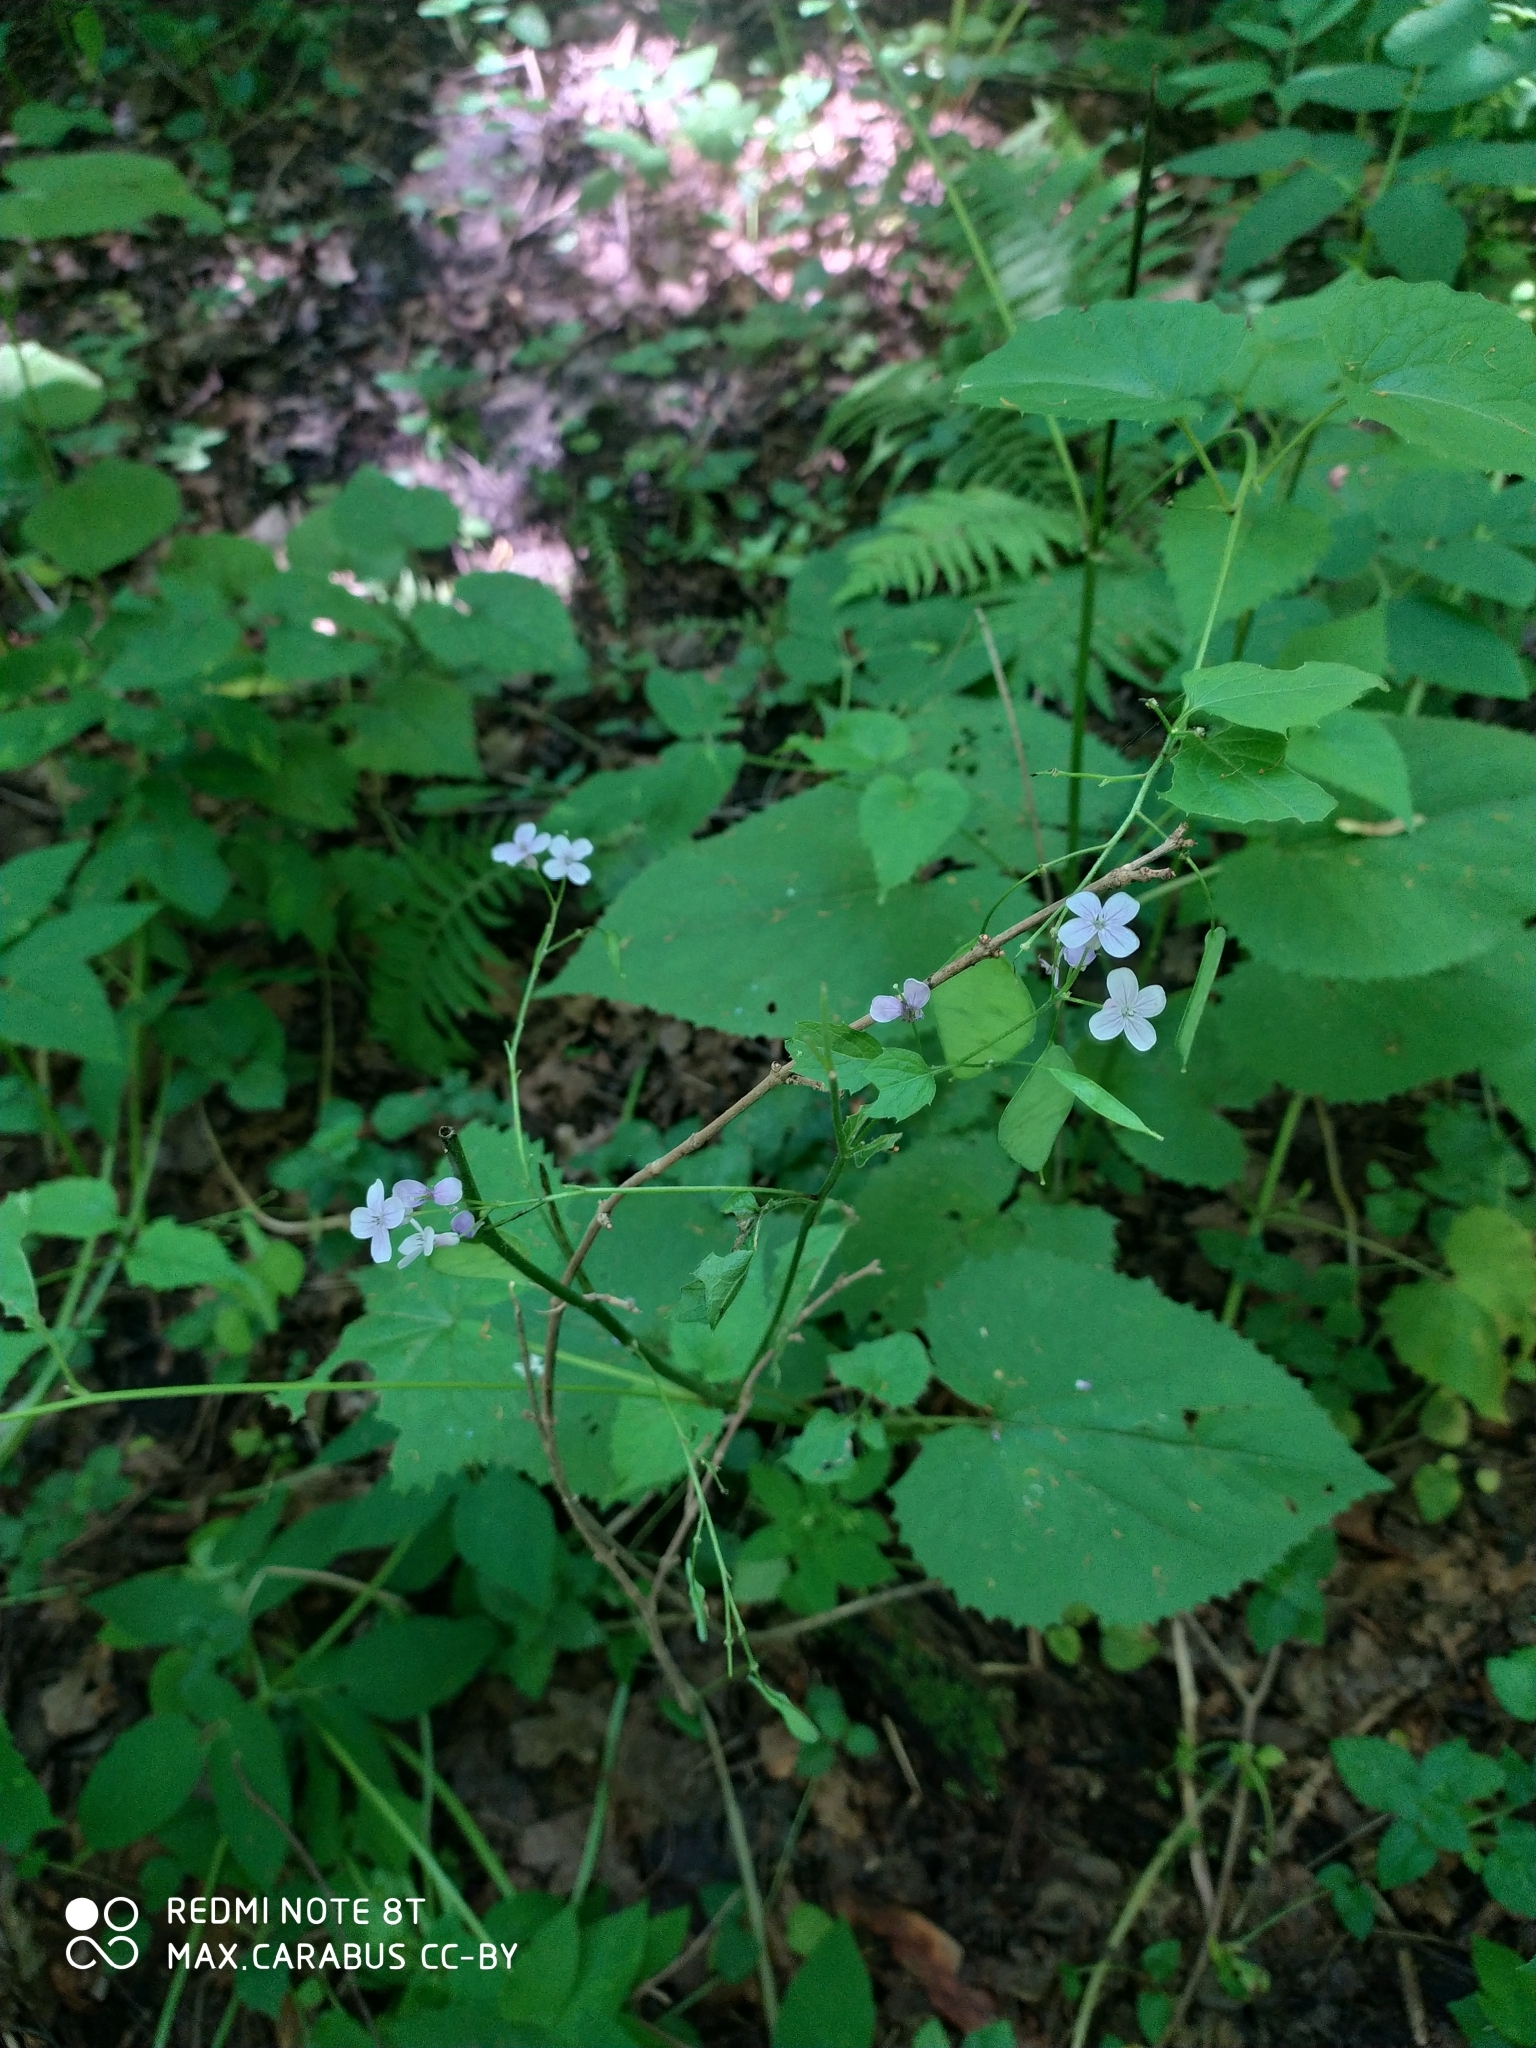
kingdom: Plantae
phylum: Tracheophyta
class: Magnoliopsida
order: Brassicales
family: Brassicaceae
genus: Lunaria
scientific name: Lunaria rediviva
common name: Perennial honesty
